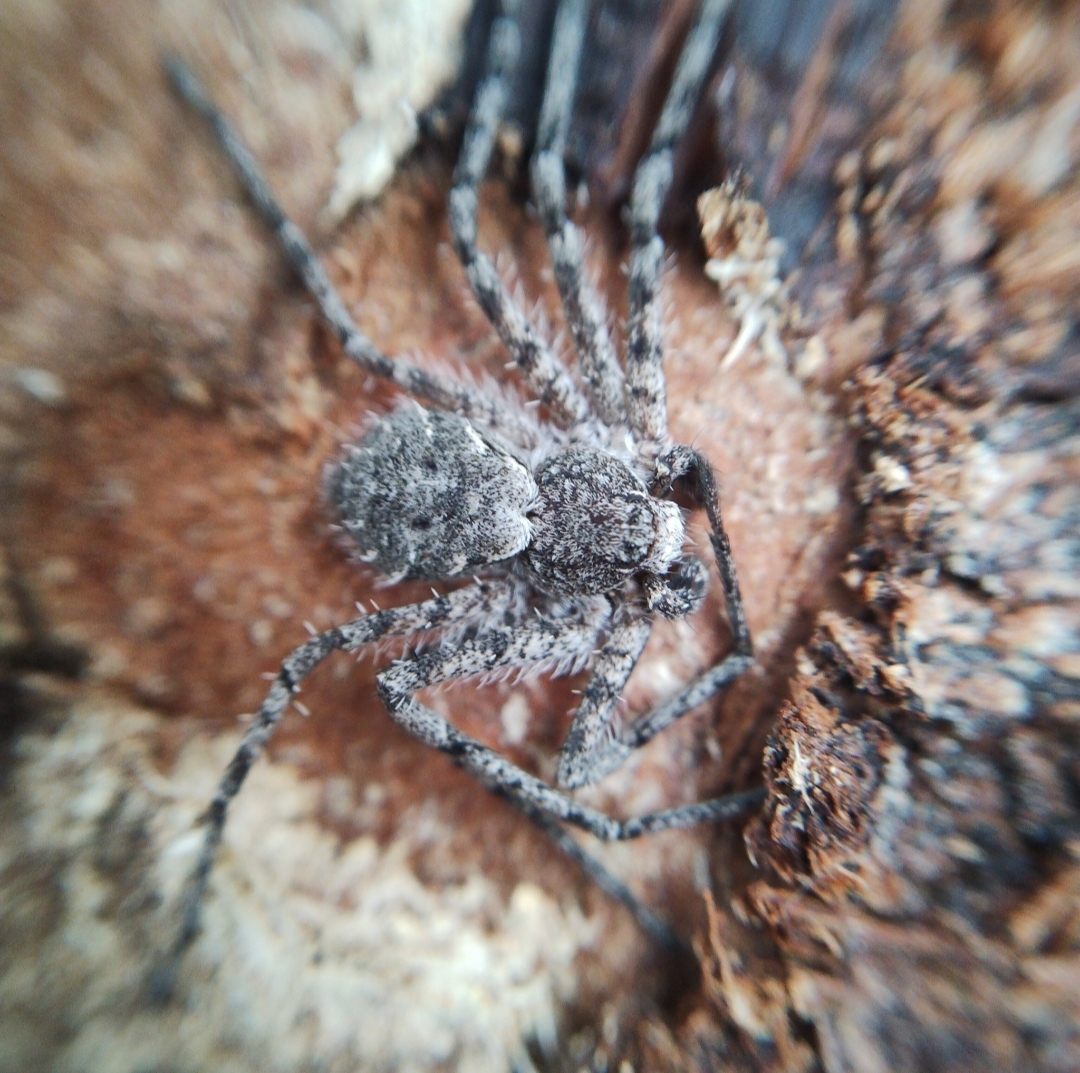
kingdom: Animalia
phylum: Arthropoda
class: Arachnida
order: Araneae
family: Philodromidae
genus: Philodromus
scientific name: Philodromus margaritatus
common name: Lichen running-spider
